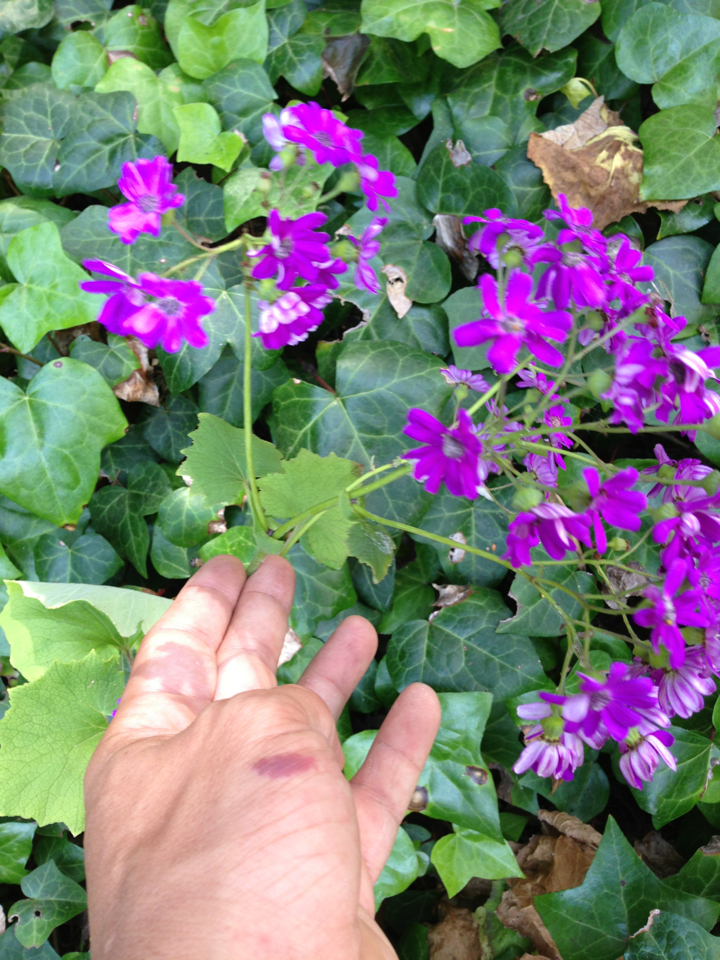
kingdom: Plantae
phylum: Tracheophyta
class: Magnoliopsida
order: Asterales
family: Asteraceae
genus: Pericallis
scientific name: Pericallis hybrida
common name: Cineraria
